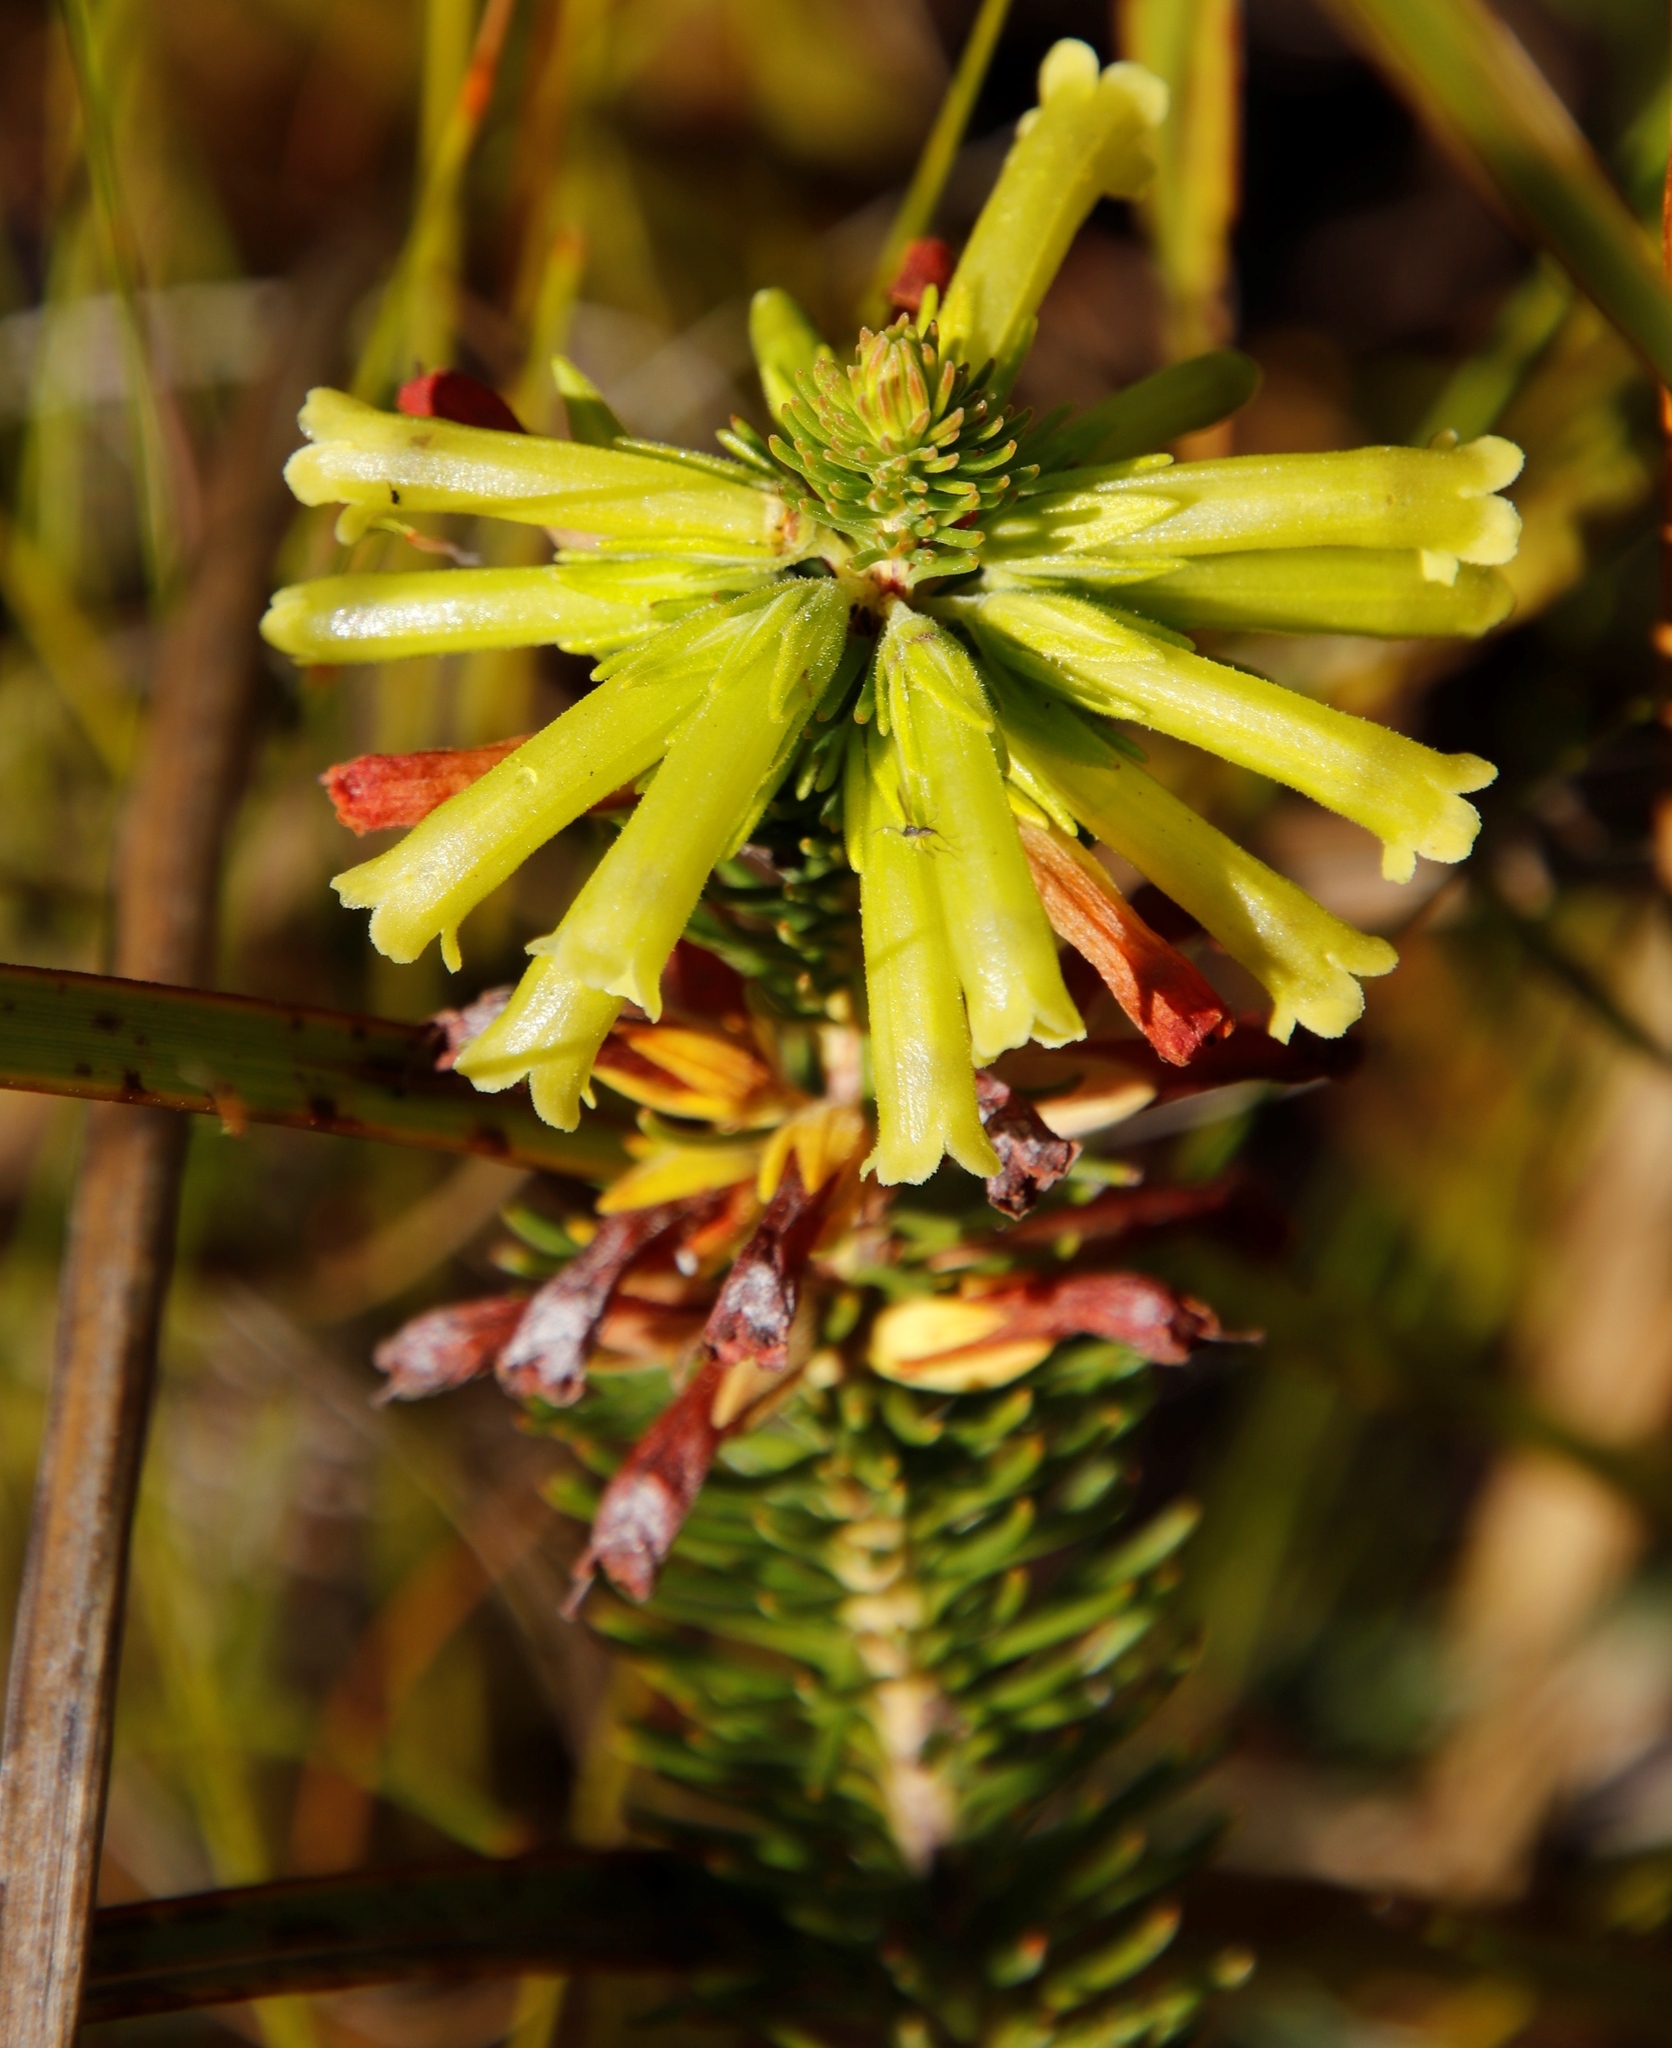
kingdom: Plantae
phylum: Tracheophyta
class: Magnoliopsida
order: Ericales
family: Ericaceae
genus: Erica
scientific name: Erica viscaria
